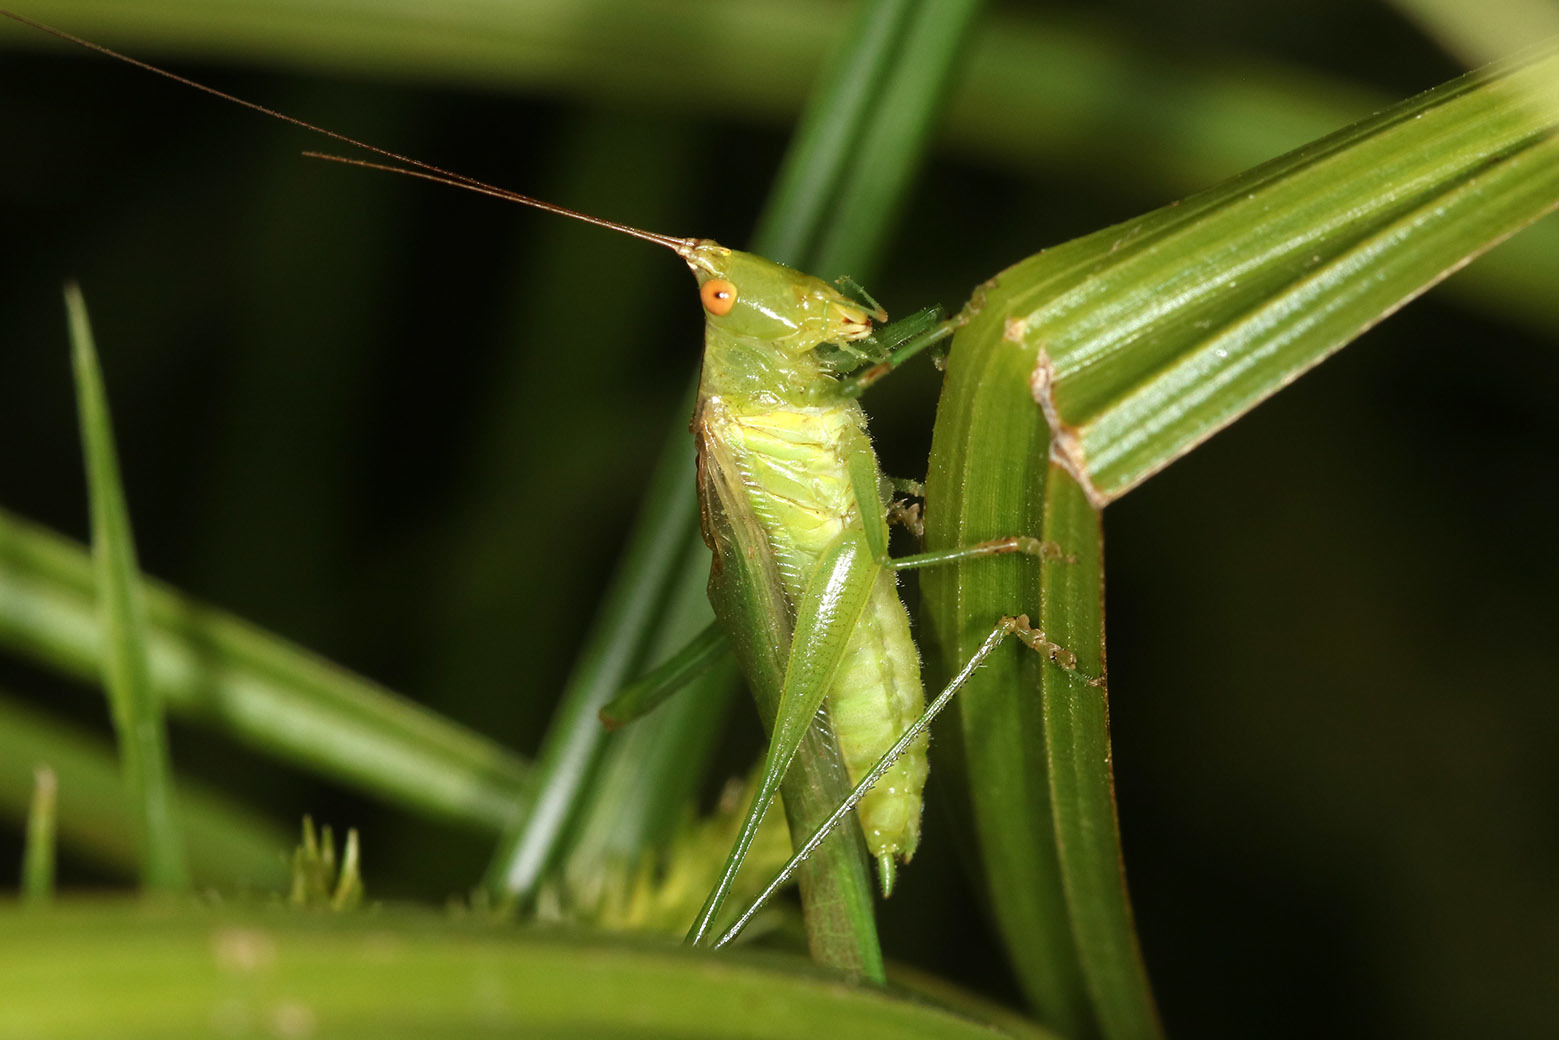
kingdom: Animalia
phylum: Arthropoda
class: Insecta
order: Orthoptera
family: Tettigoniidae
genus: Conocephalus
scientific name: Conocephalus longipes
